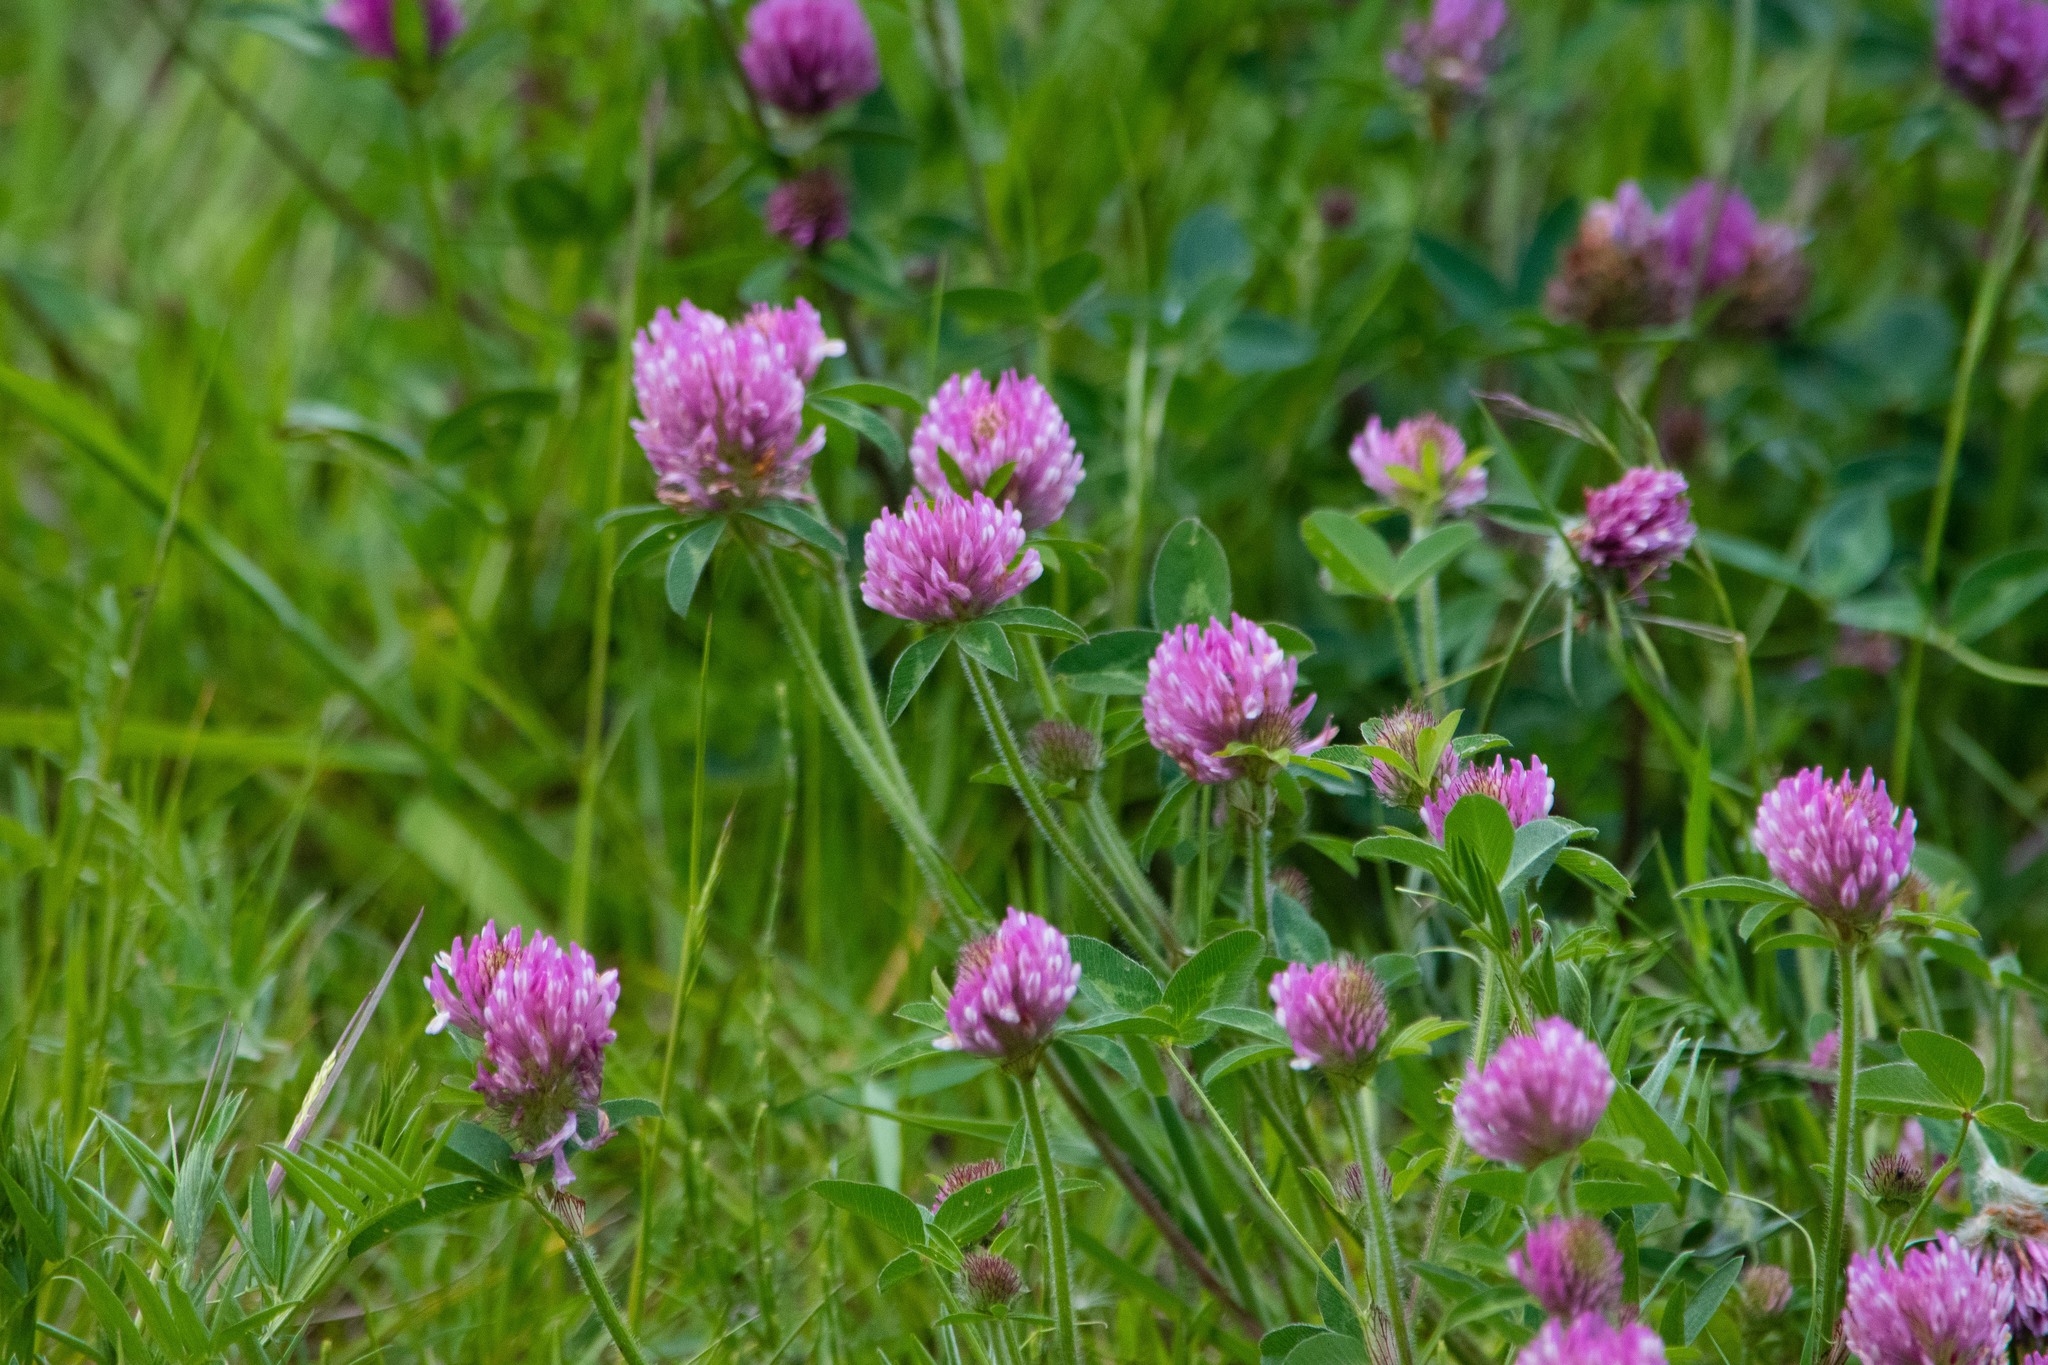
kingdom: Plantae
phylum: Tracheophyta
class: Magnoliopsida
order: Fabales
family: Fabaceae
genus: Trifolium
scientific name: Trifolium pratense
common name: Red clover
